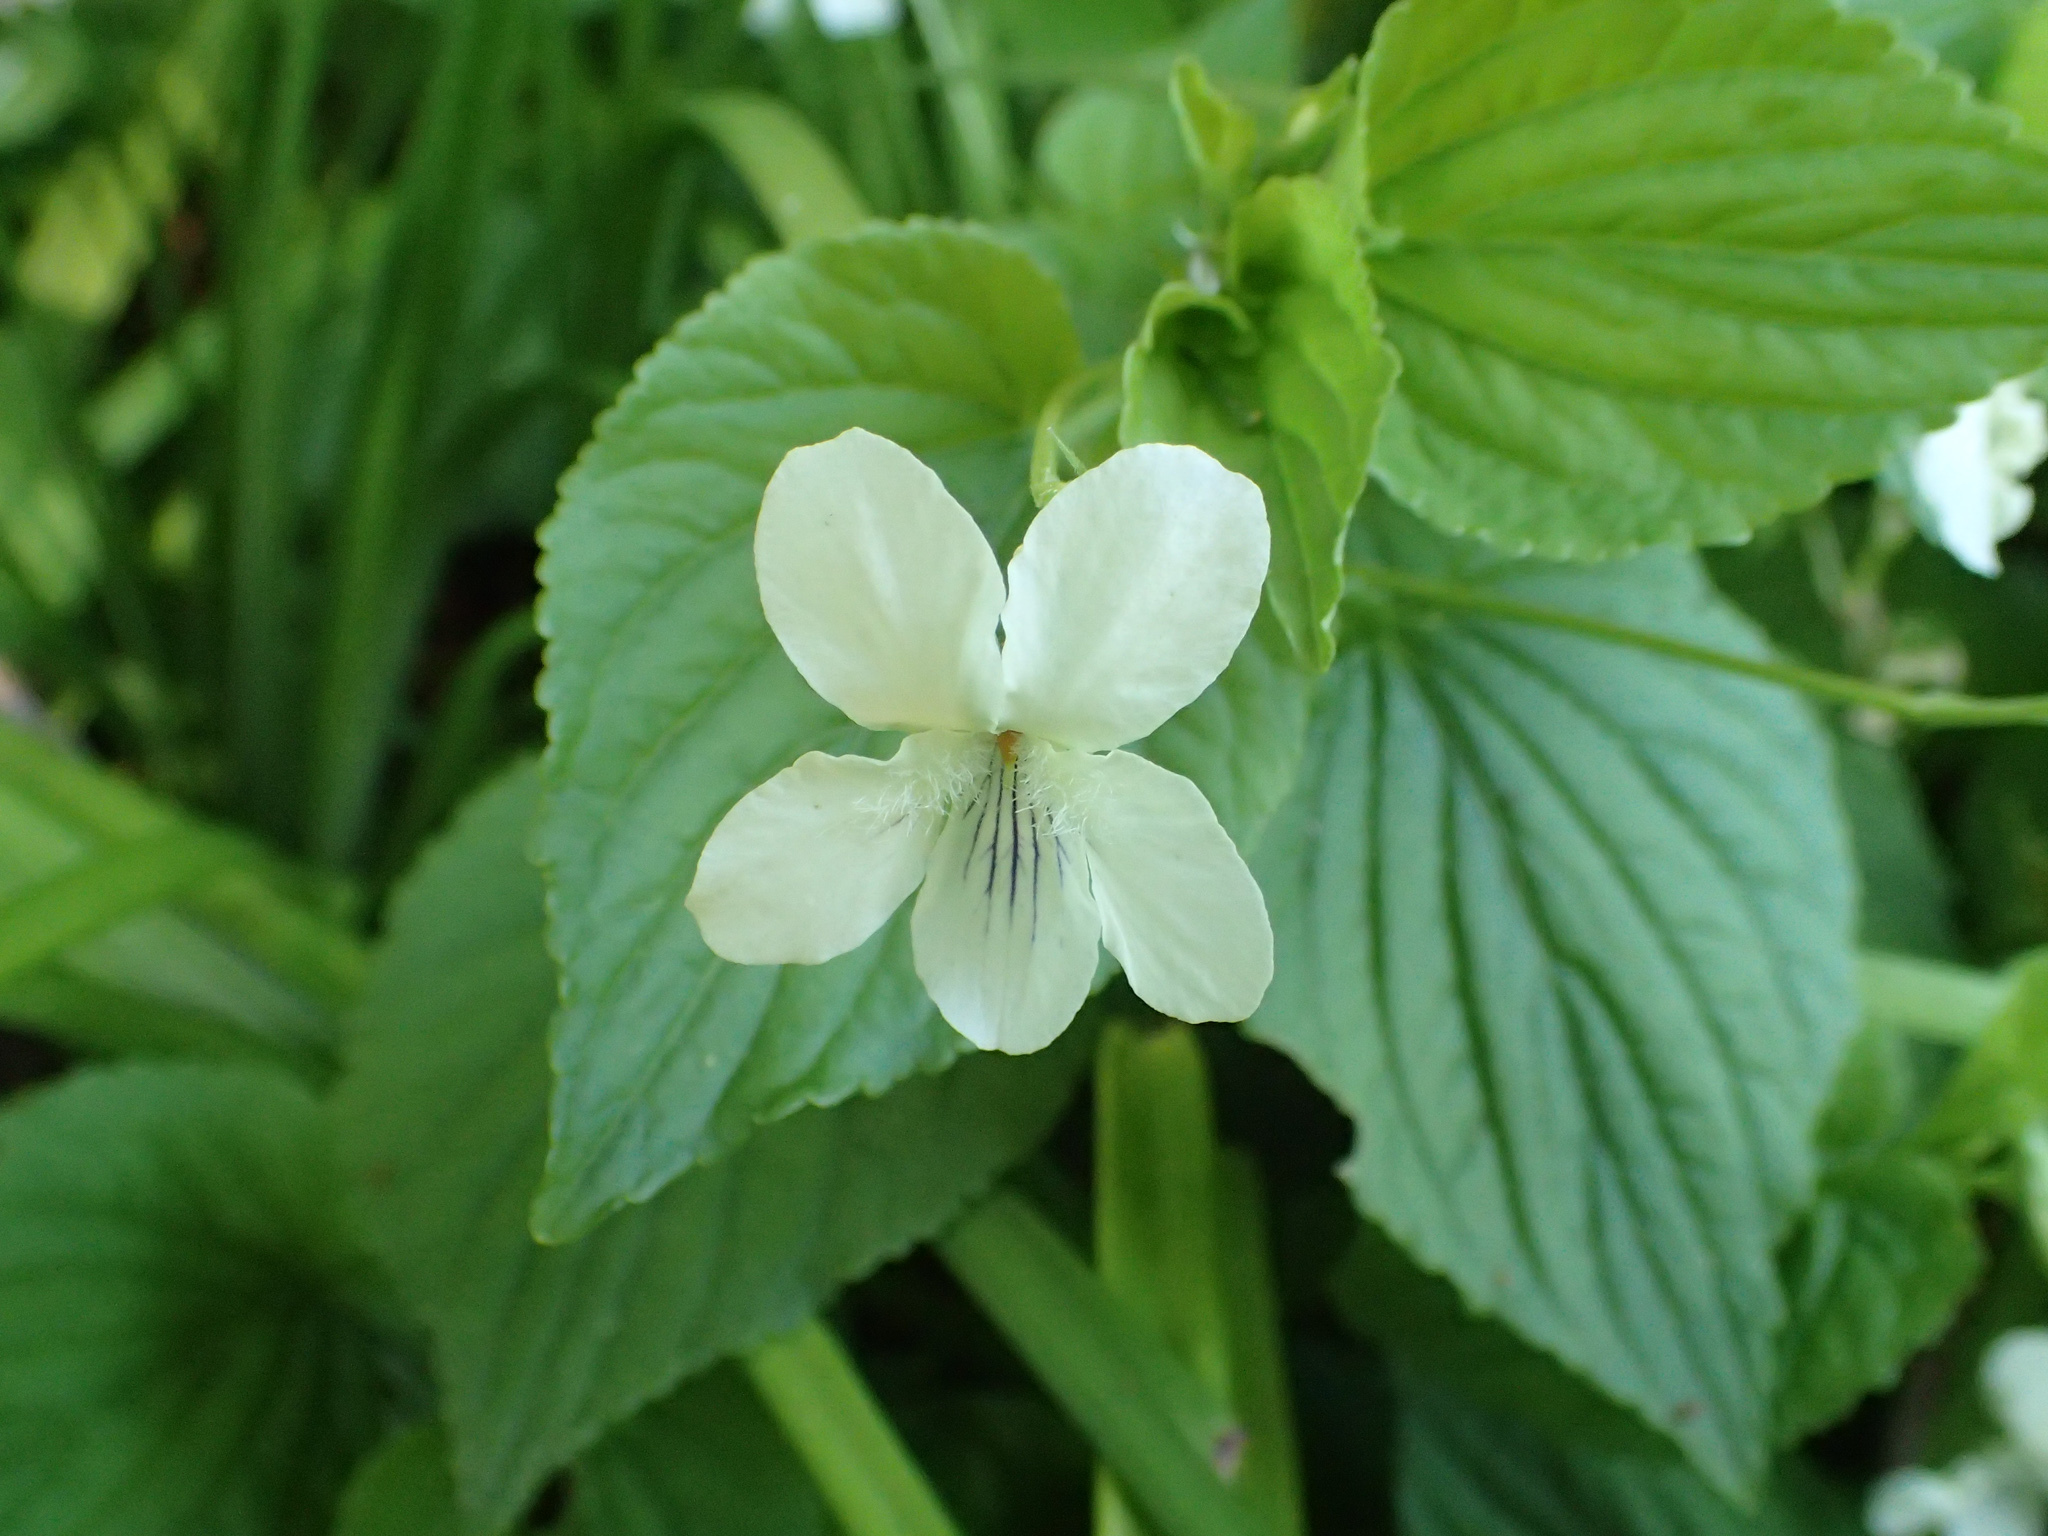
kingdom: Plantae
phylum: Tracheophyta
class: Magnoliopsida
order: Malpighiales
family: Violaceae
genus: Viola
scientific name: Viola striata
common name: Cream violet
